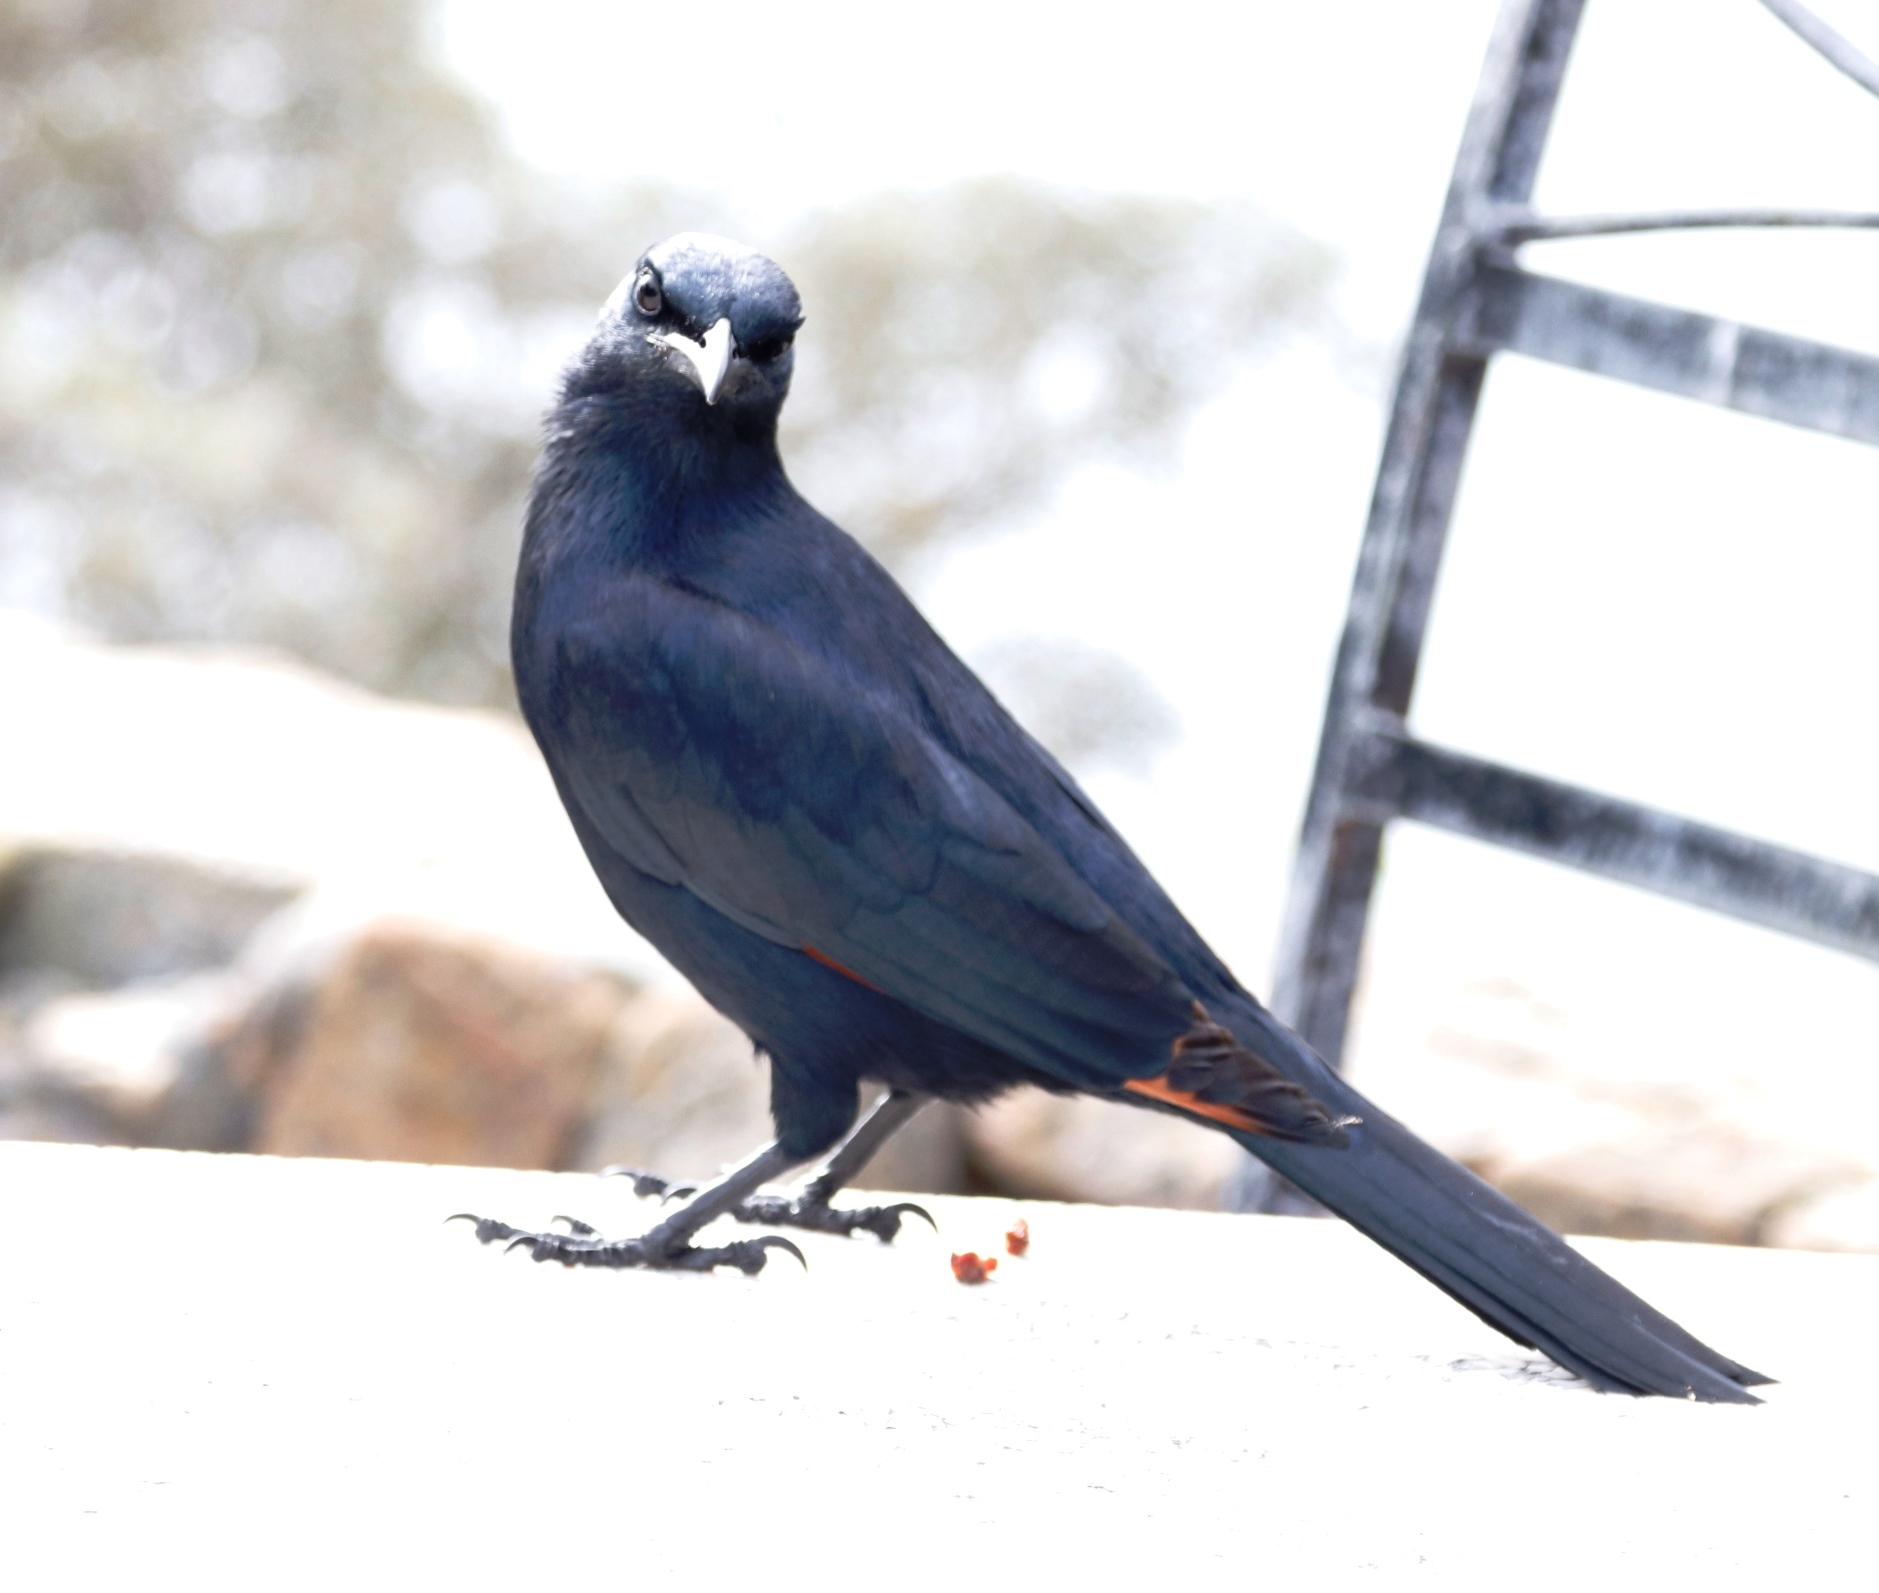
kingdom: Animalia
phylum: Chordata
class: Aves
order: Passeriformes
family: Sturnidae
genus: Onychognathus
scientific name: Onychognathus morio
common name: Red-winged starling
